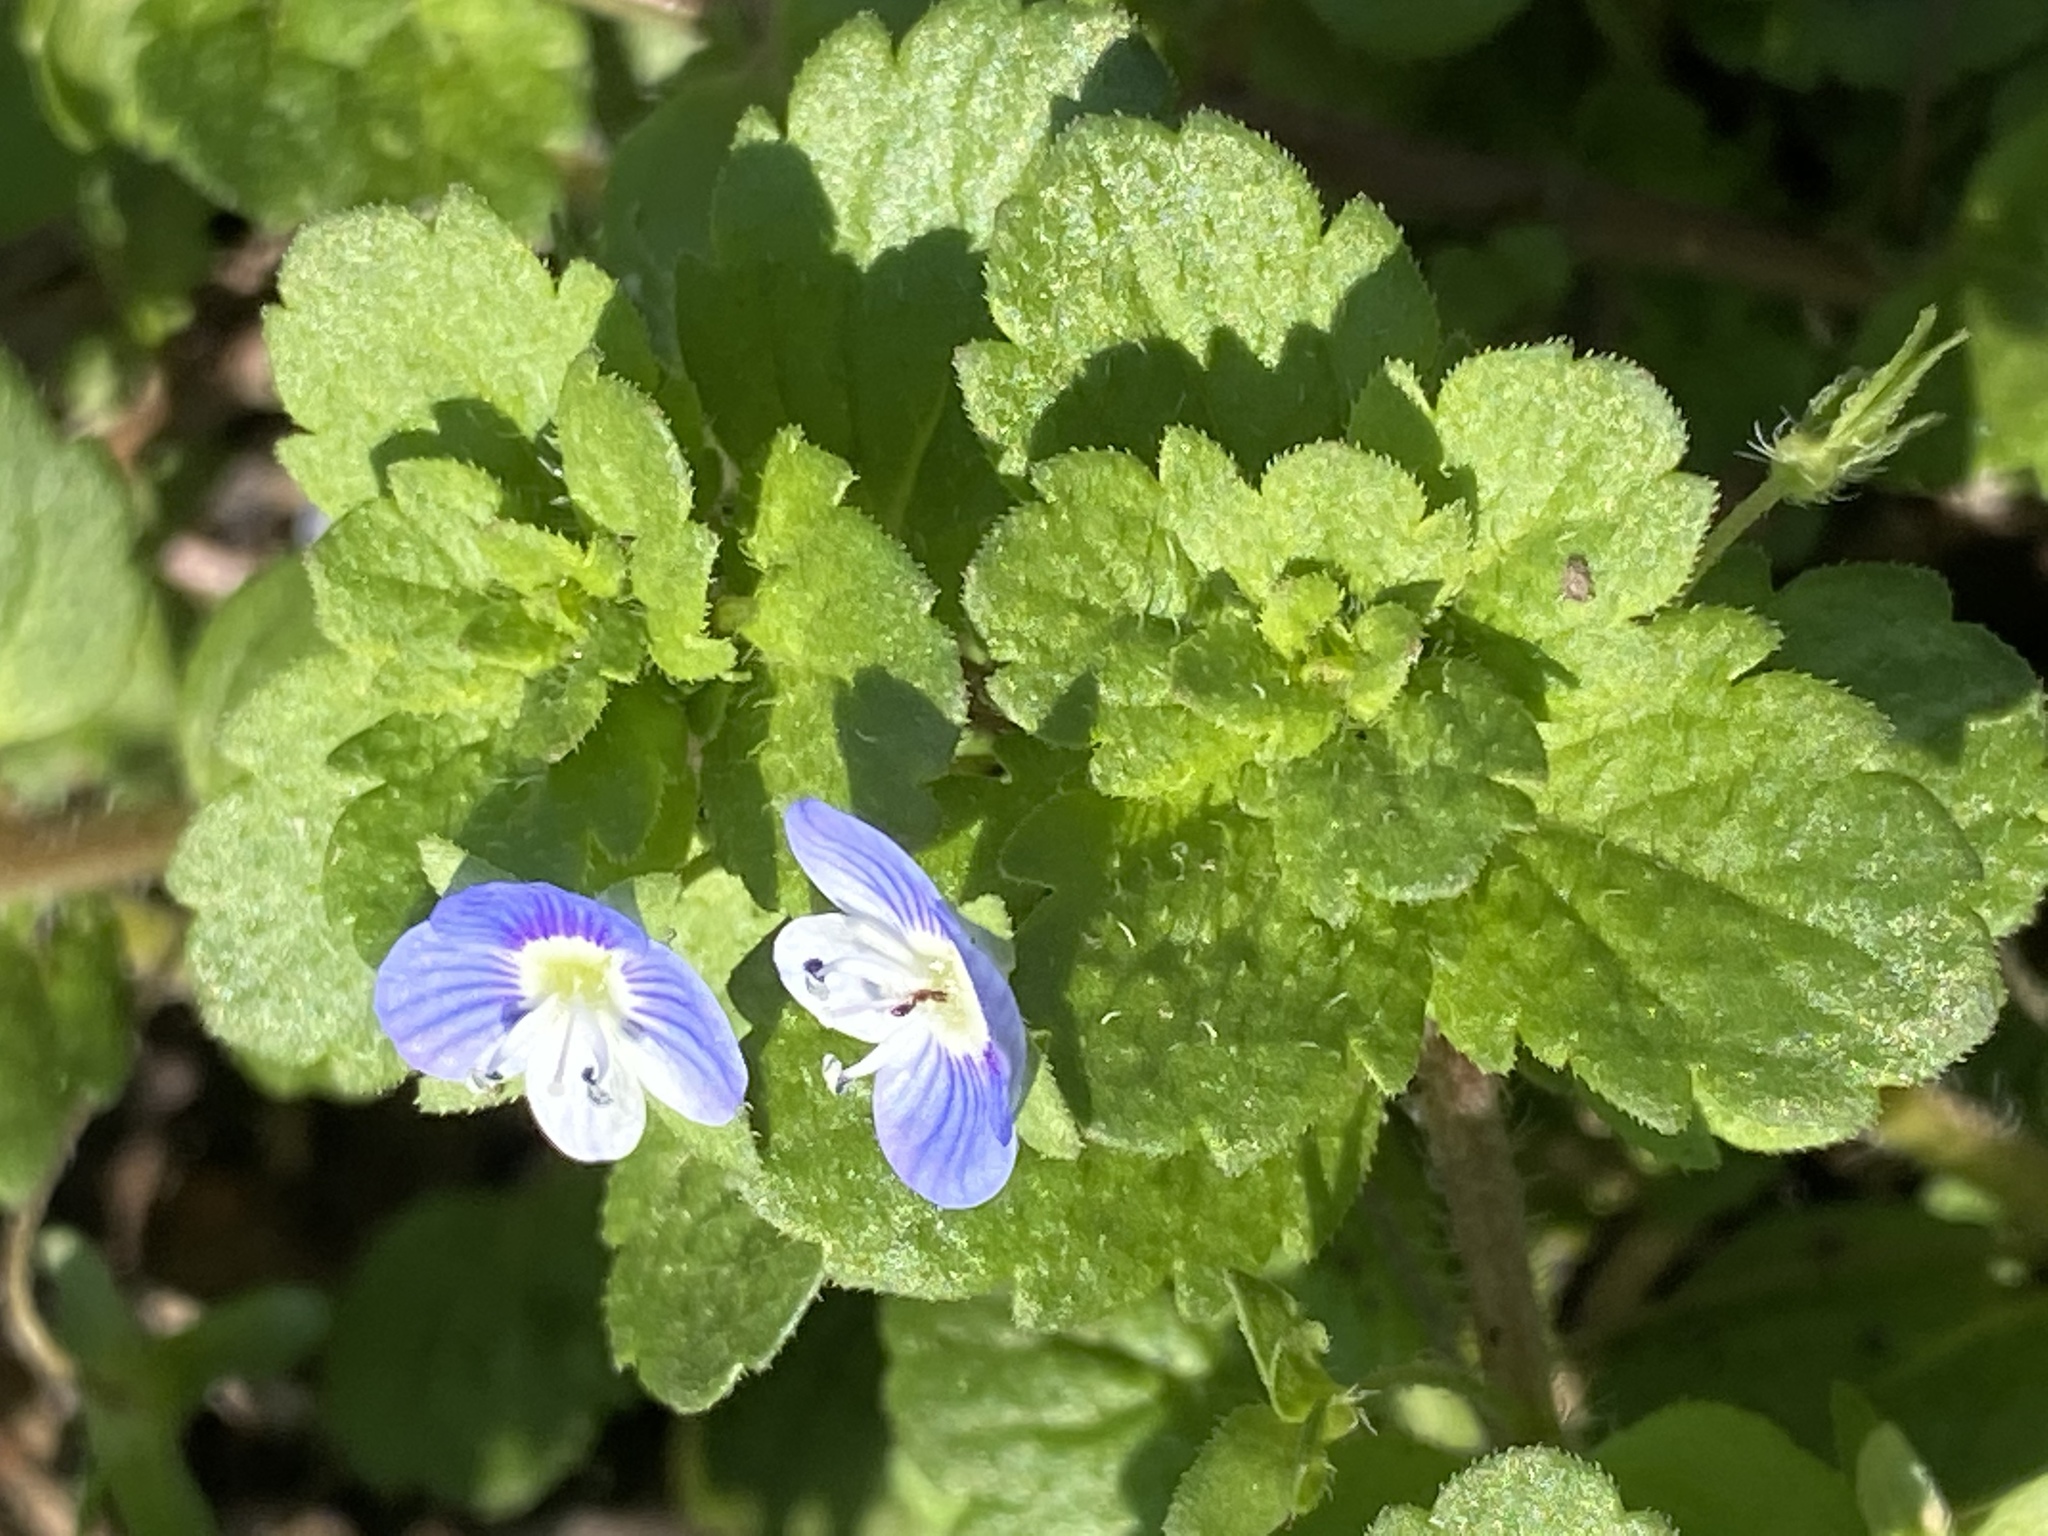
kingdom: Plantae
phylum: Tracheophyta
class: Magnoliopsida
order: Lamiales
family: Plantaginaceae
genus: Veronica
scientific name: Veronica persica
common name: Common field-speedwell
